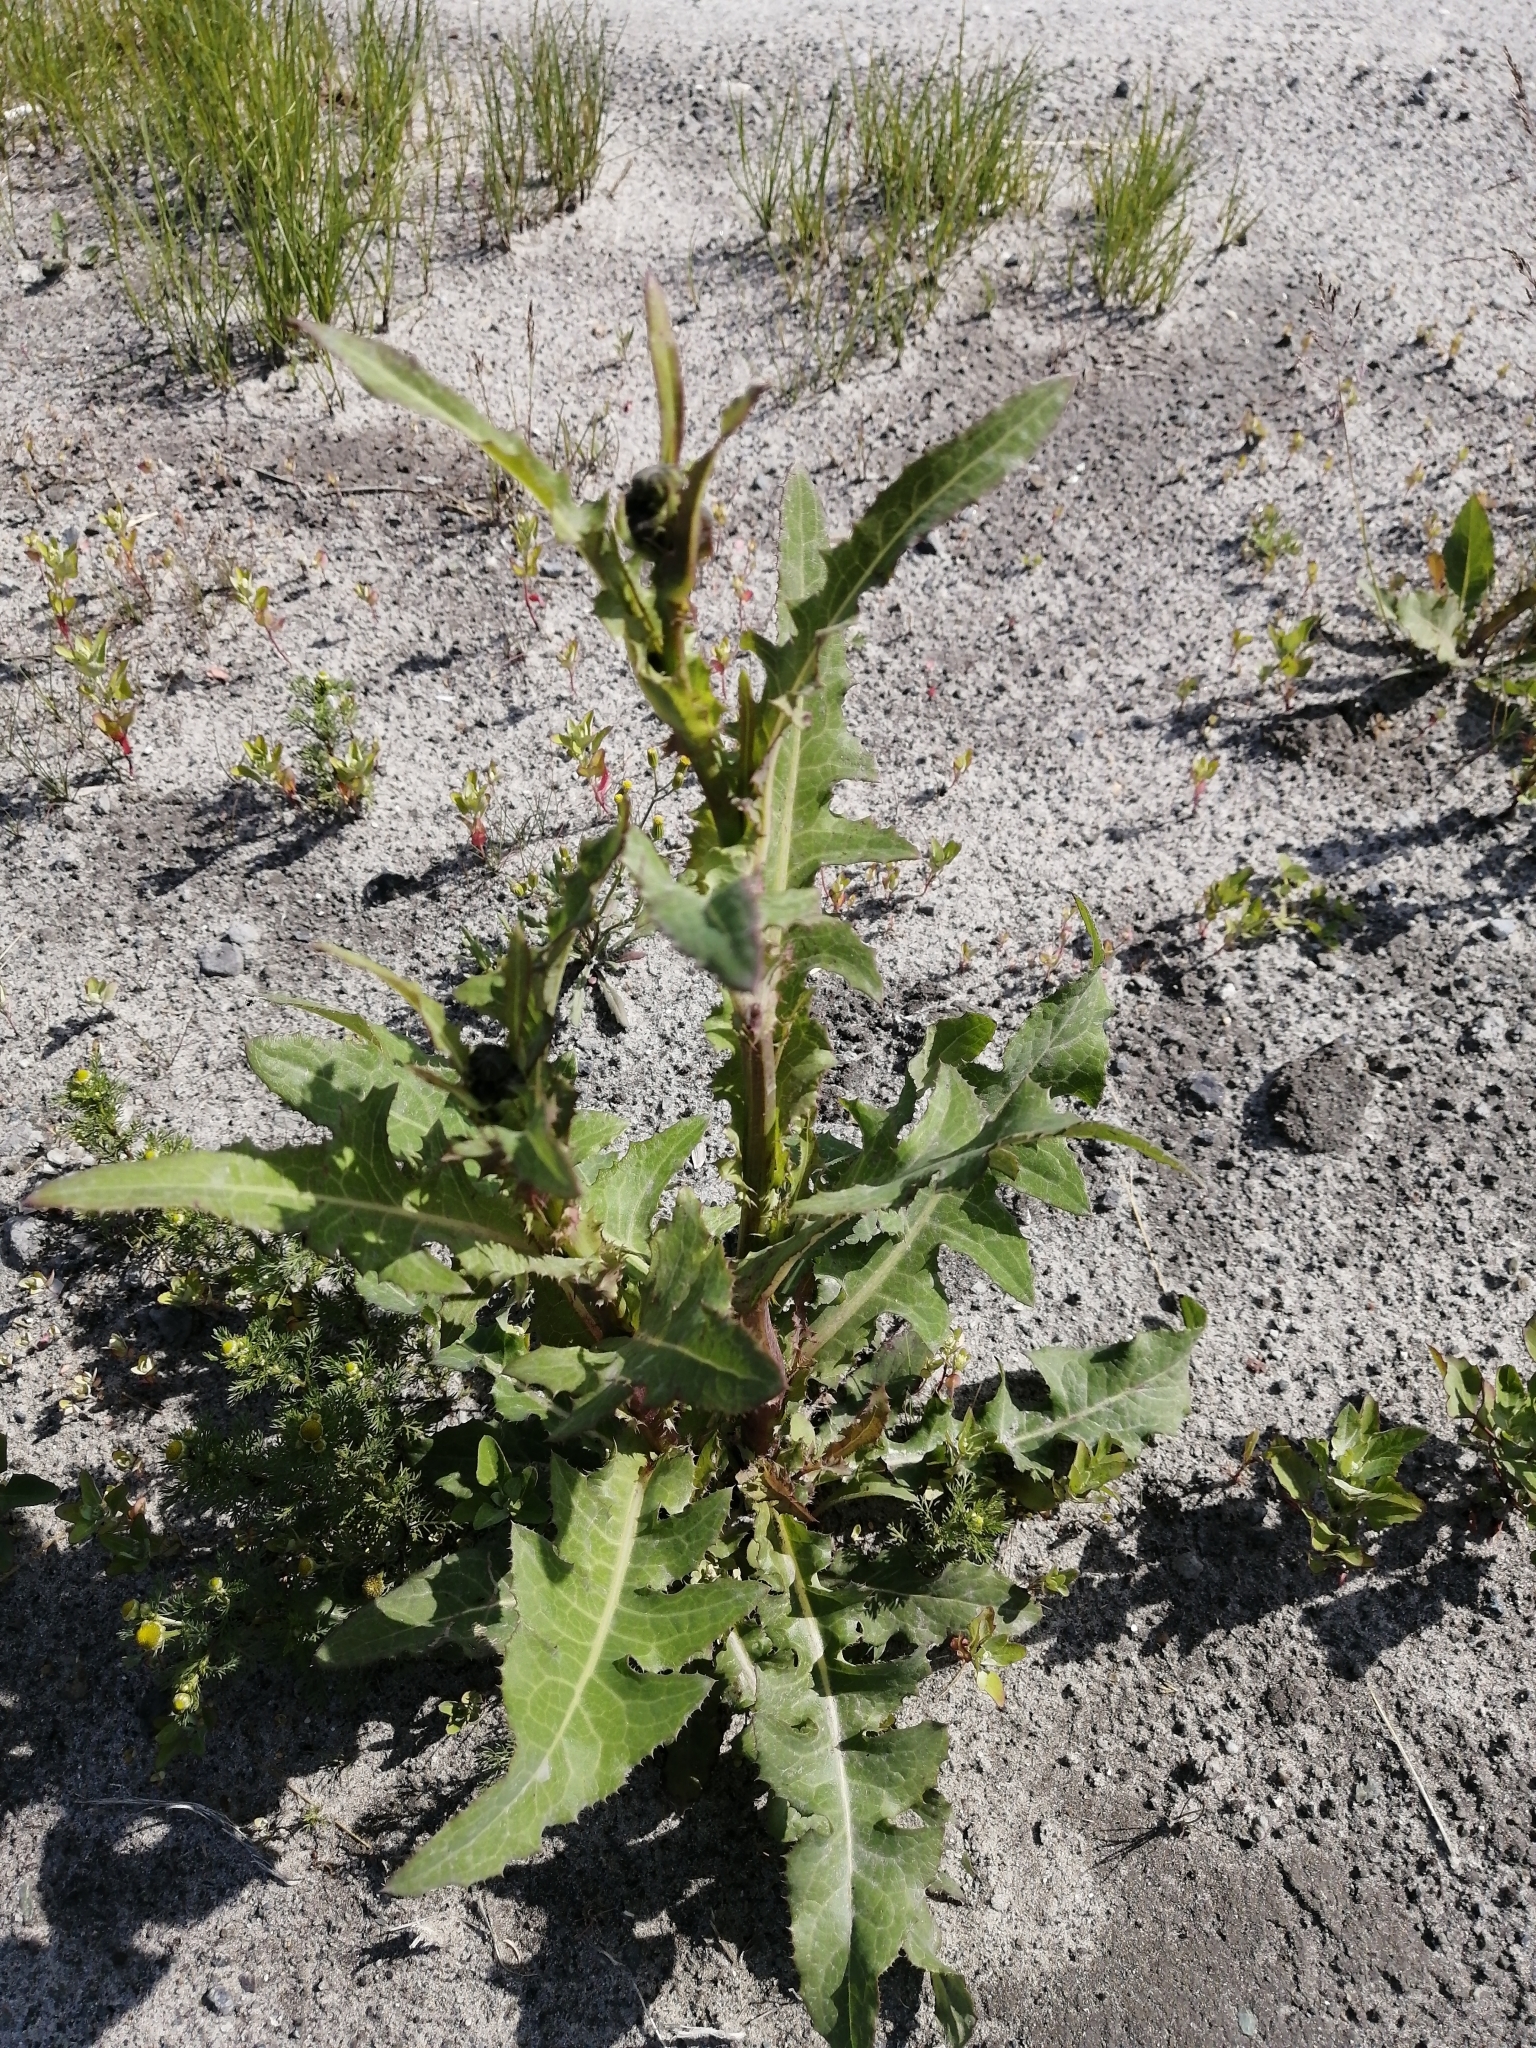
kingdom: Plantae
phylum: Tracheophyta
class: Magnoliopsida
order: Asterales
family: Asteraceae
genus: Sonchus
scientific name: Sonchus arvensis
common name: Perennial sow-thistle
